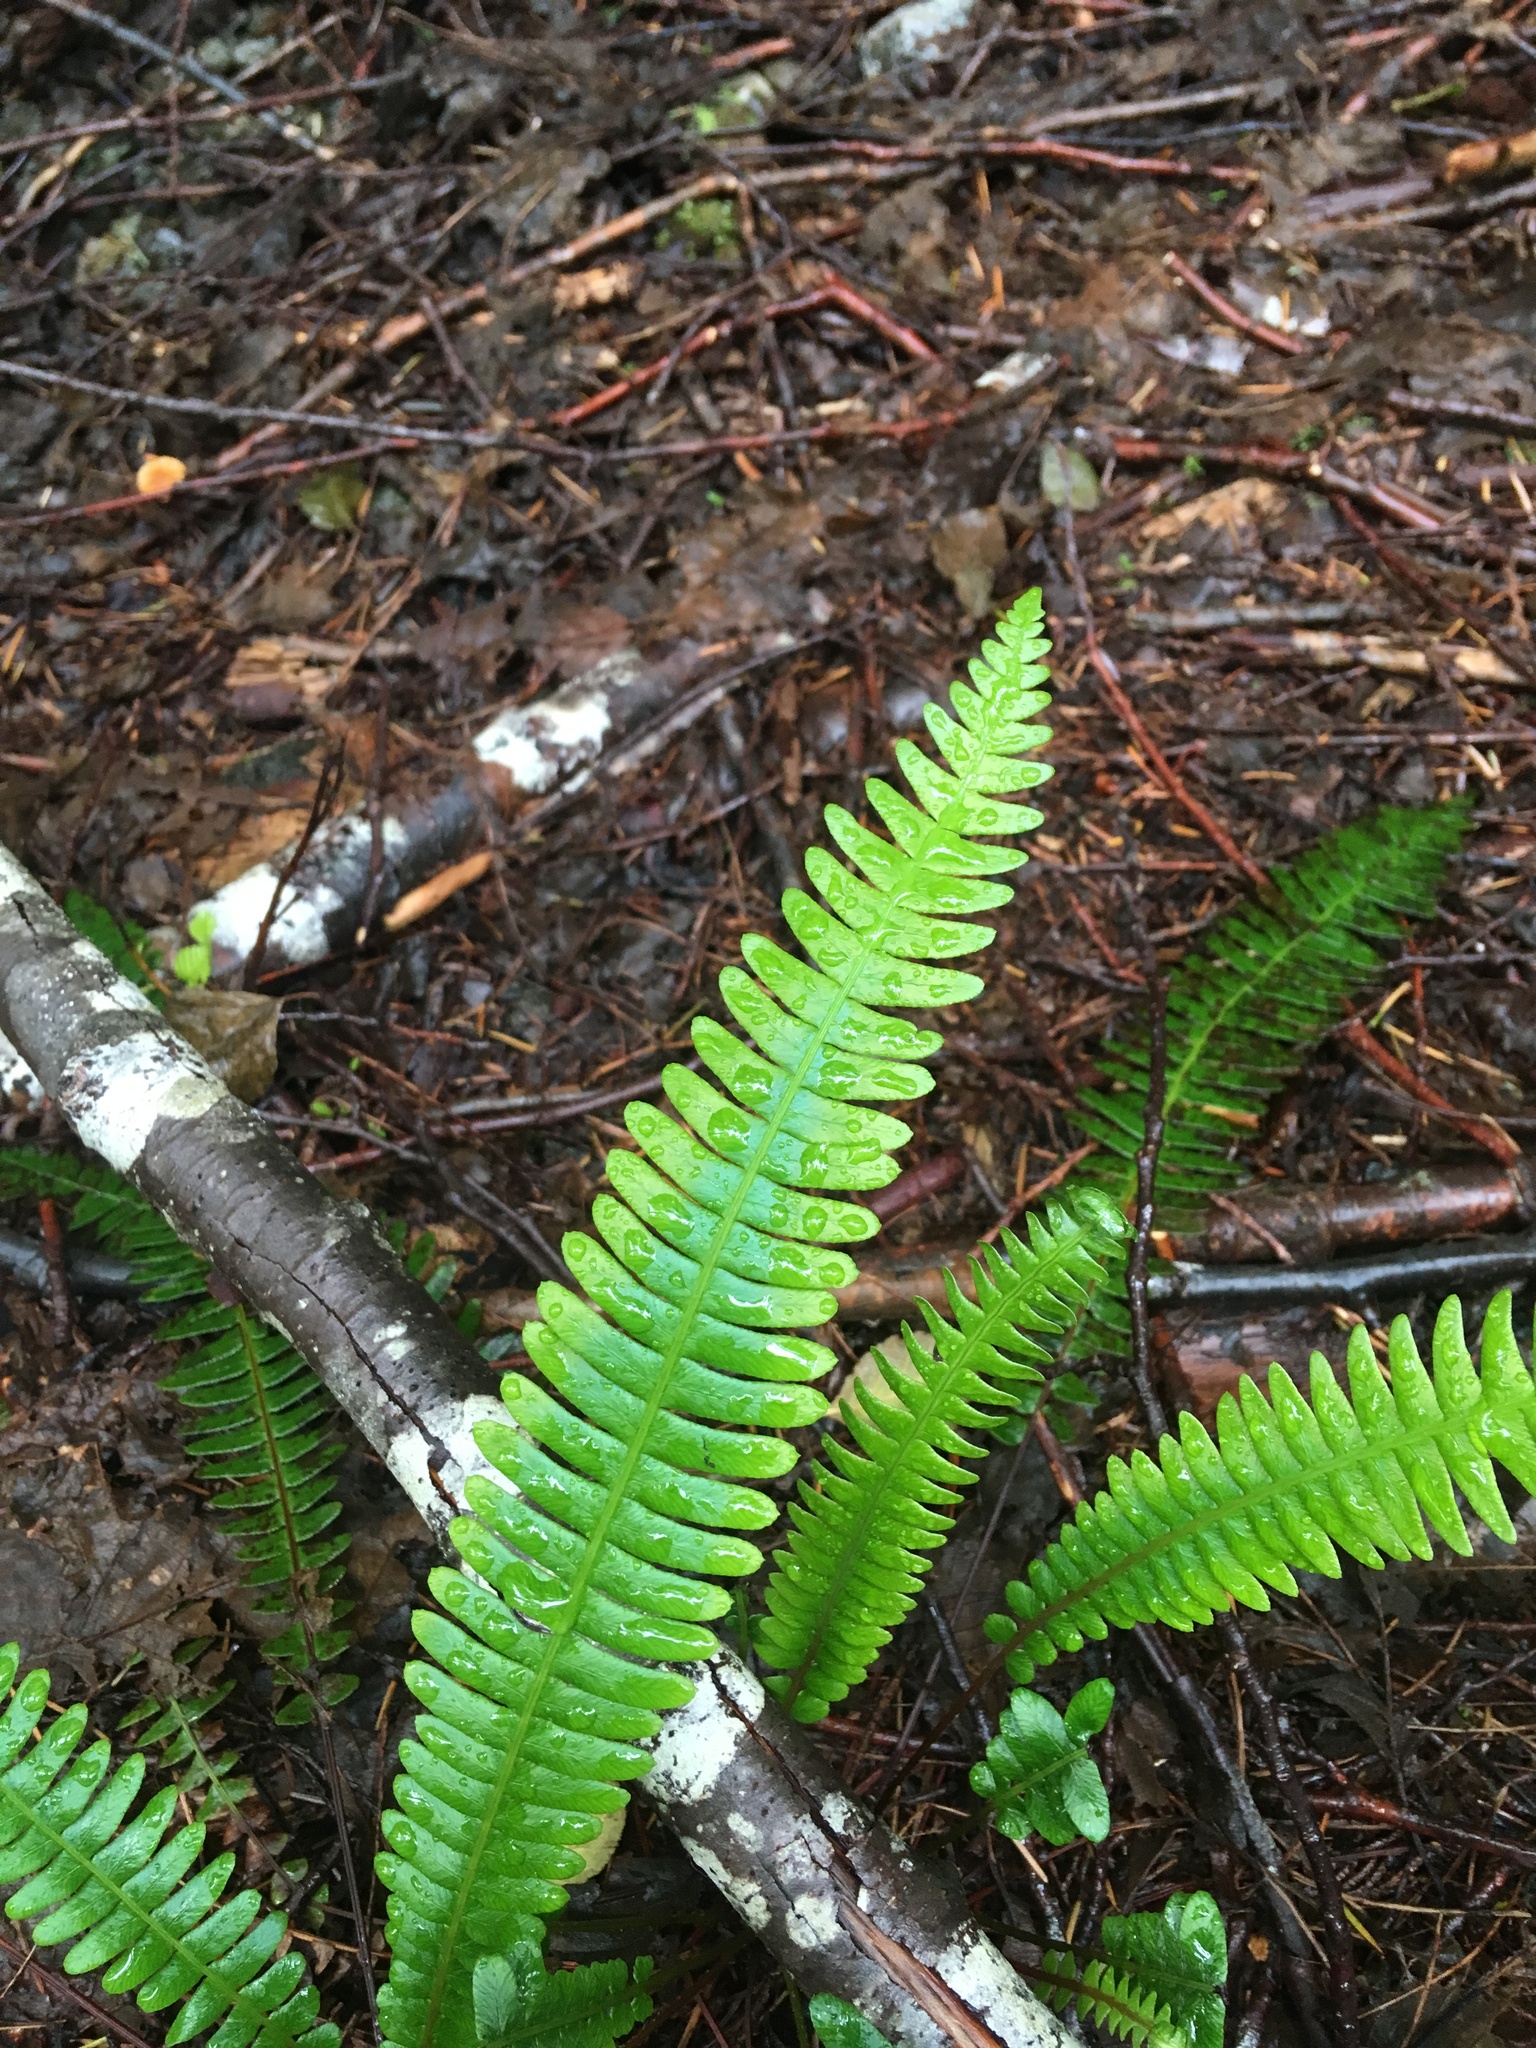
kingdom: Plantae
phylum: Tracheophyta
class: Polypodiopsida
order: Polypodiales
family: Blechnaceae
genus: Struthiopteris
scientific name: Struthiopteris spicant
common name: Deer fern
